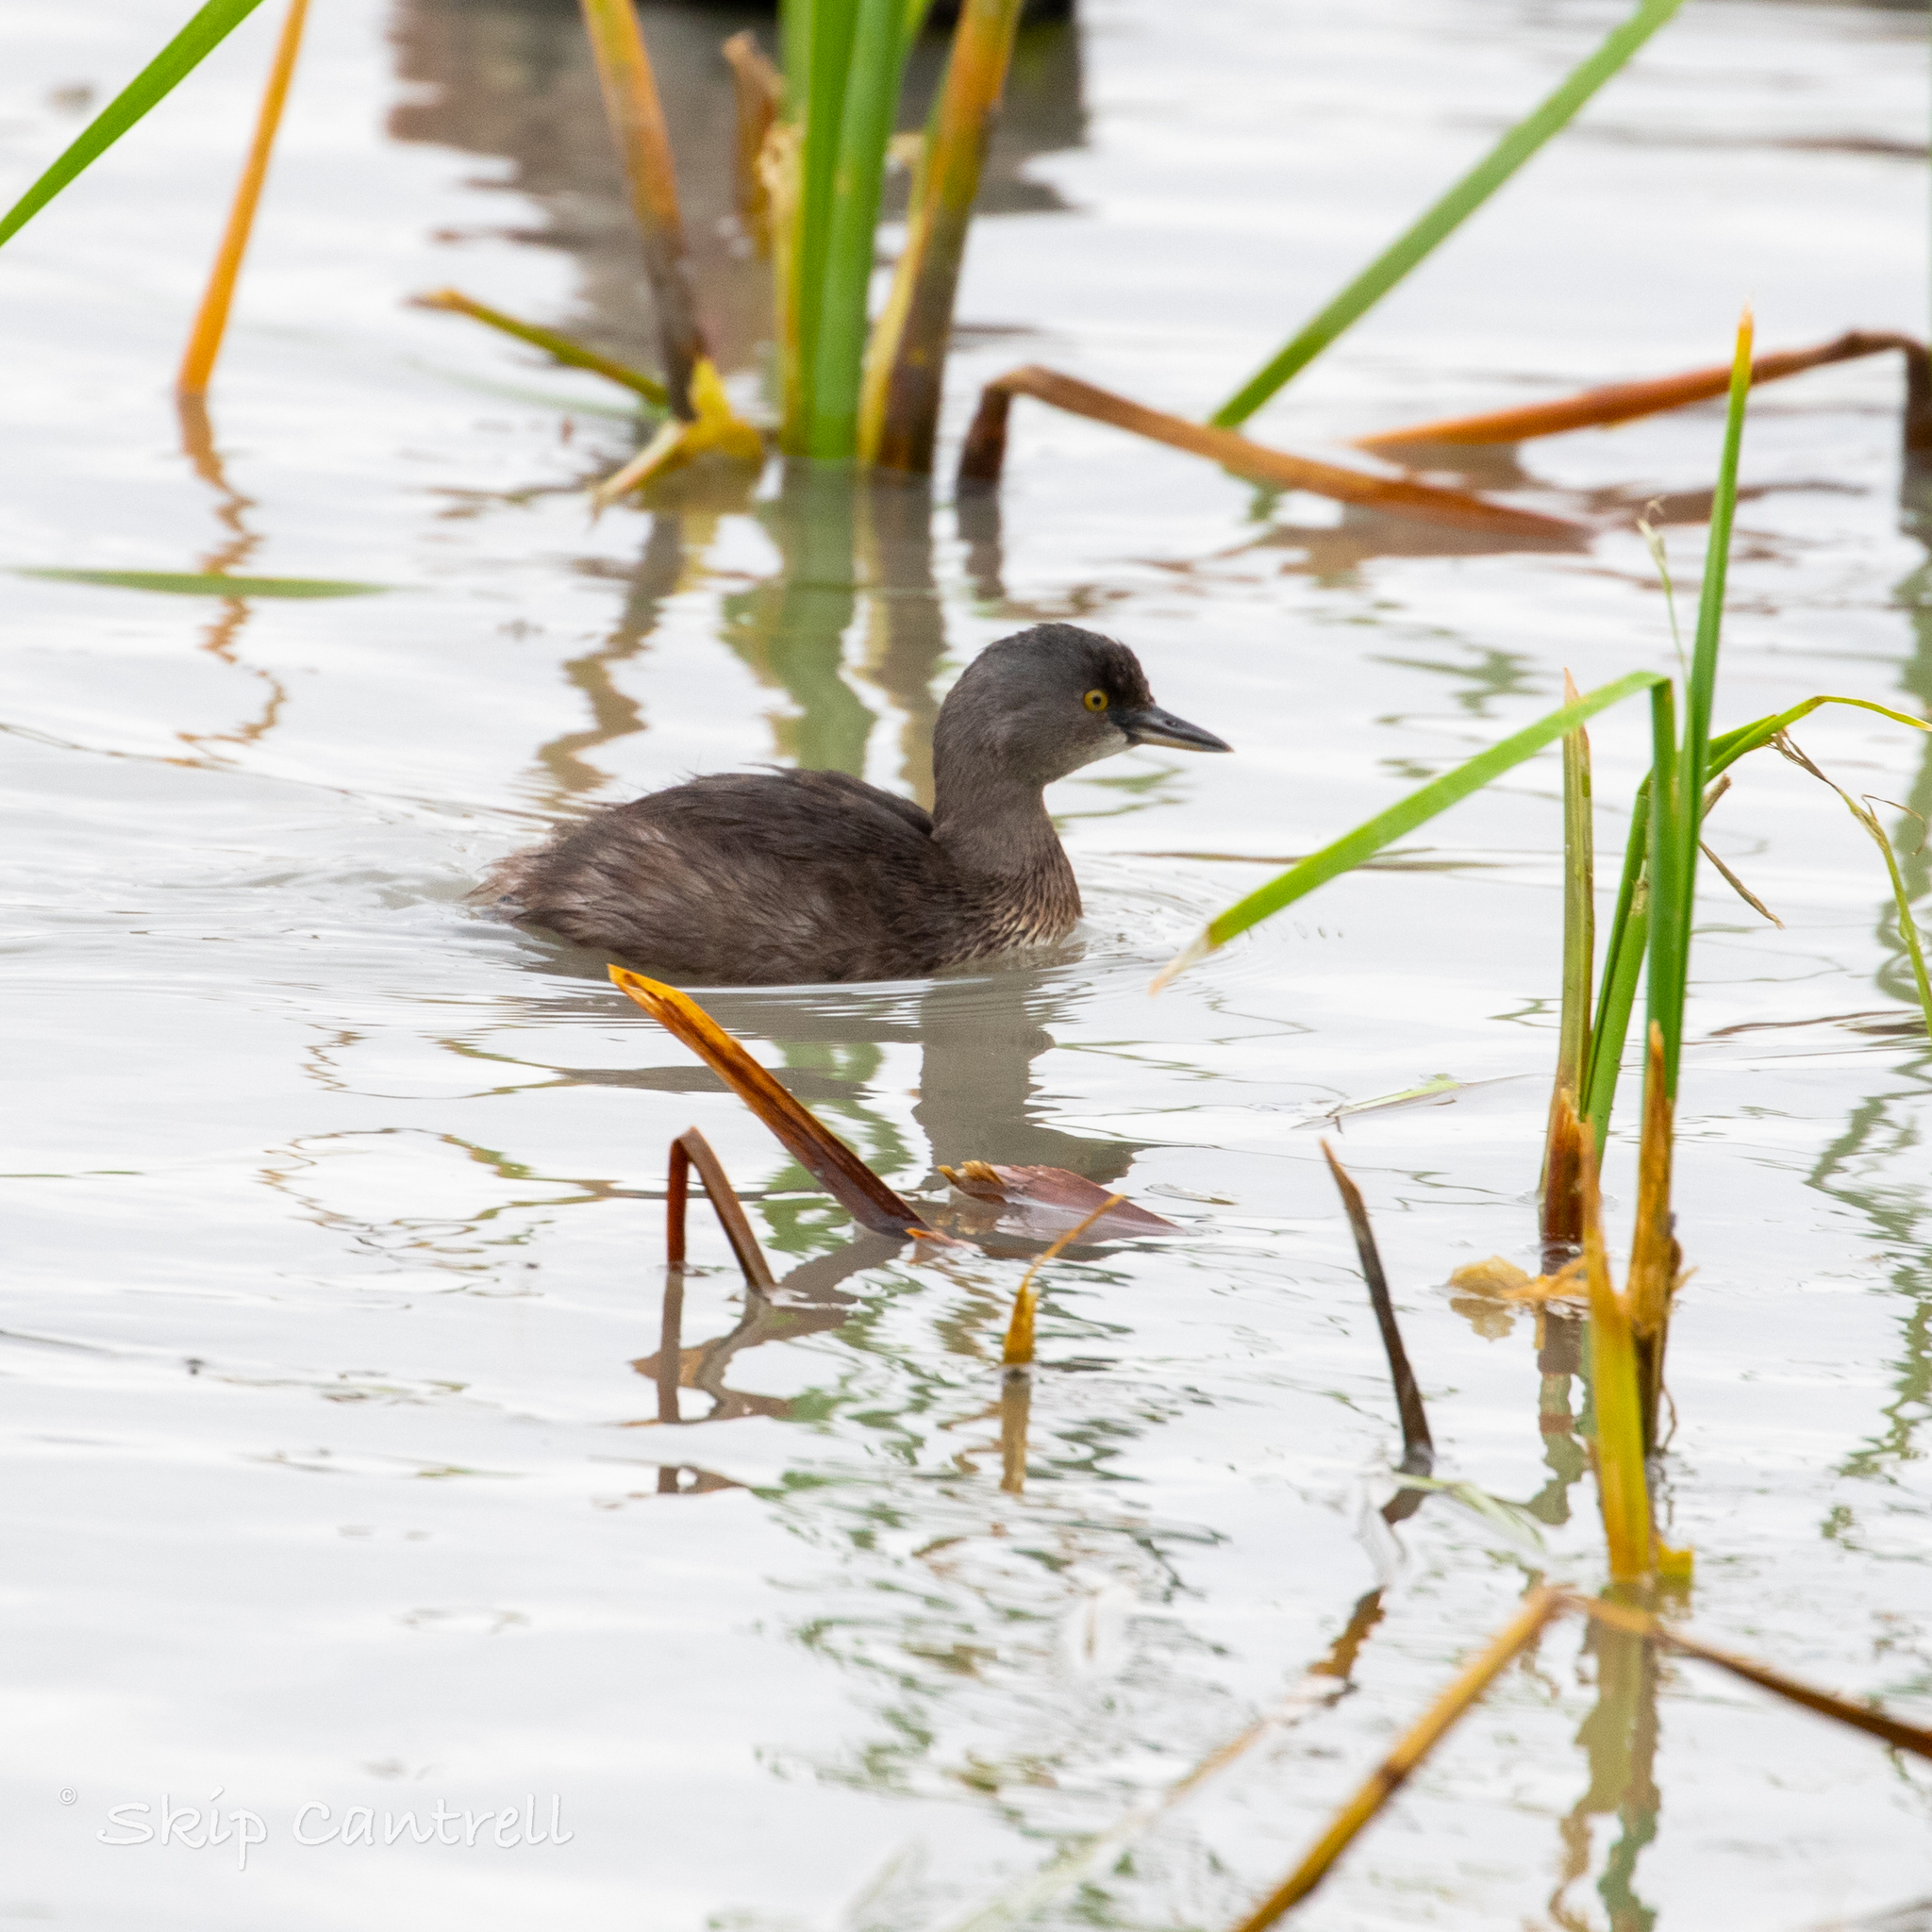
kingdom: Animalia
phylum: Chordata
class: Aves
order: Podicipediformes
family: Podicipedidae
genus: Tachybaptus
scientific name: Tachybaptus dominicus
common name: Least grebe
